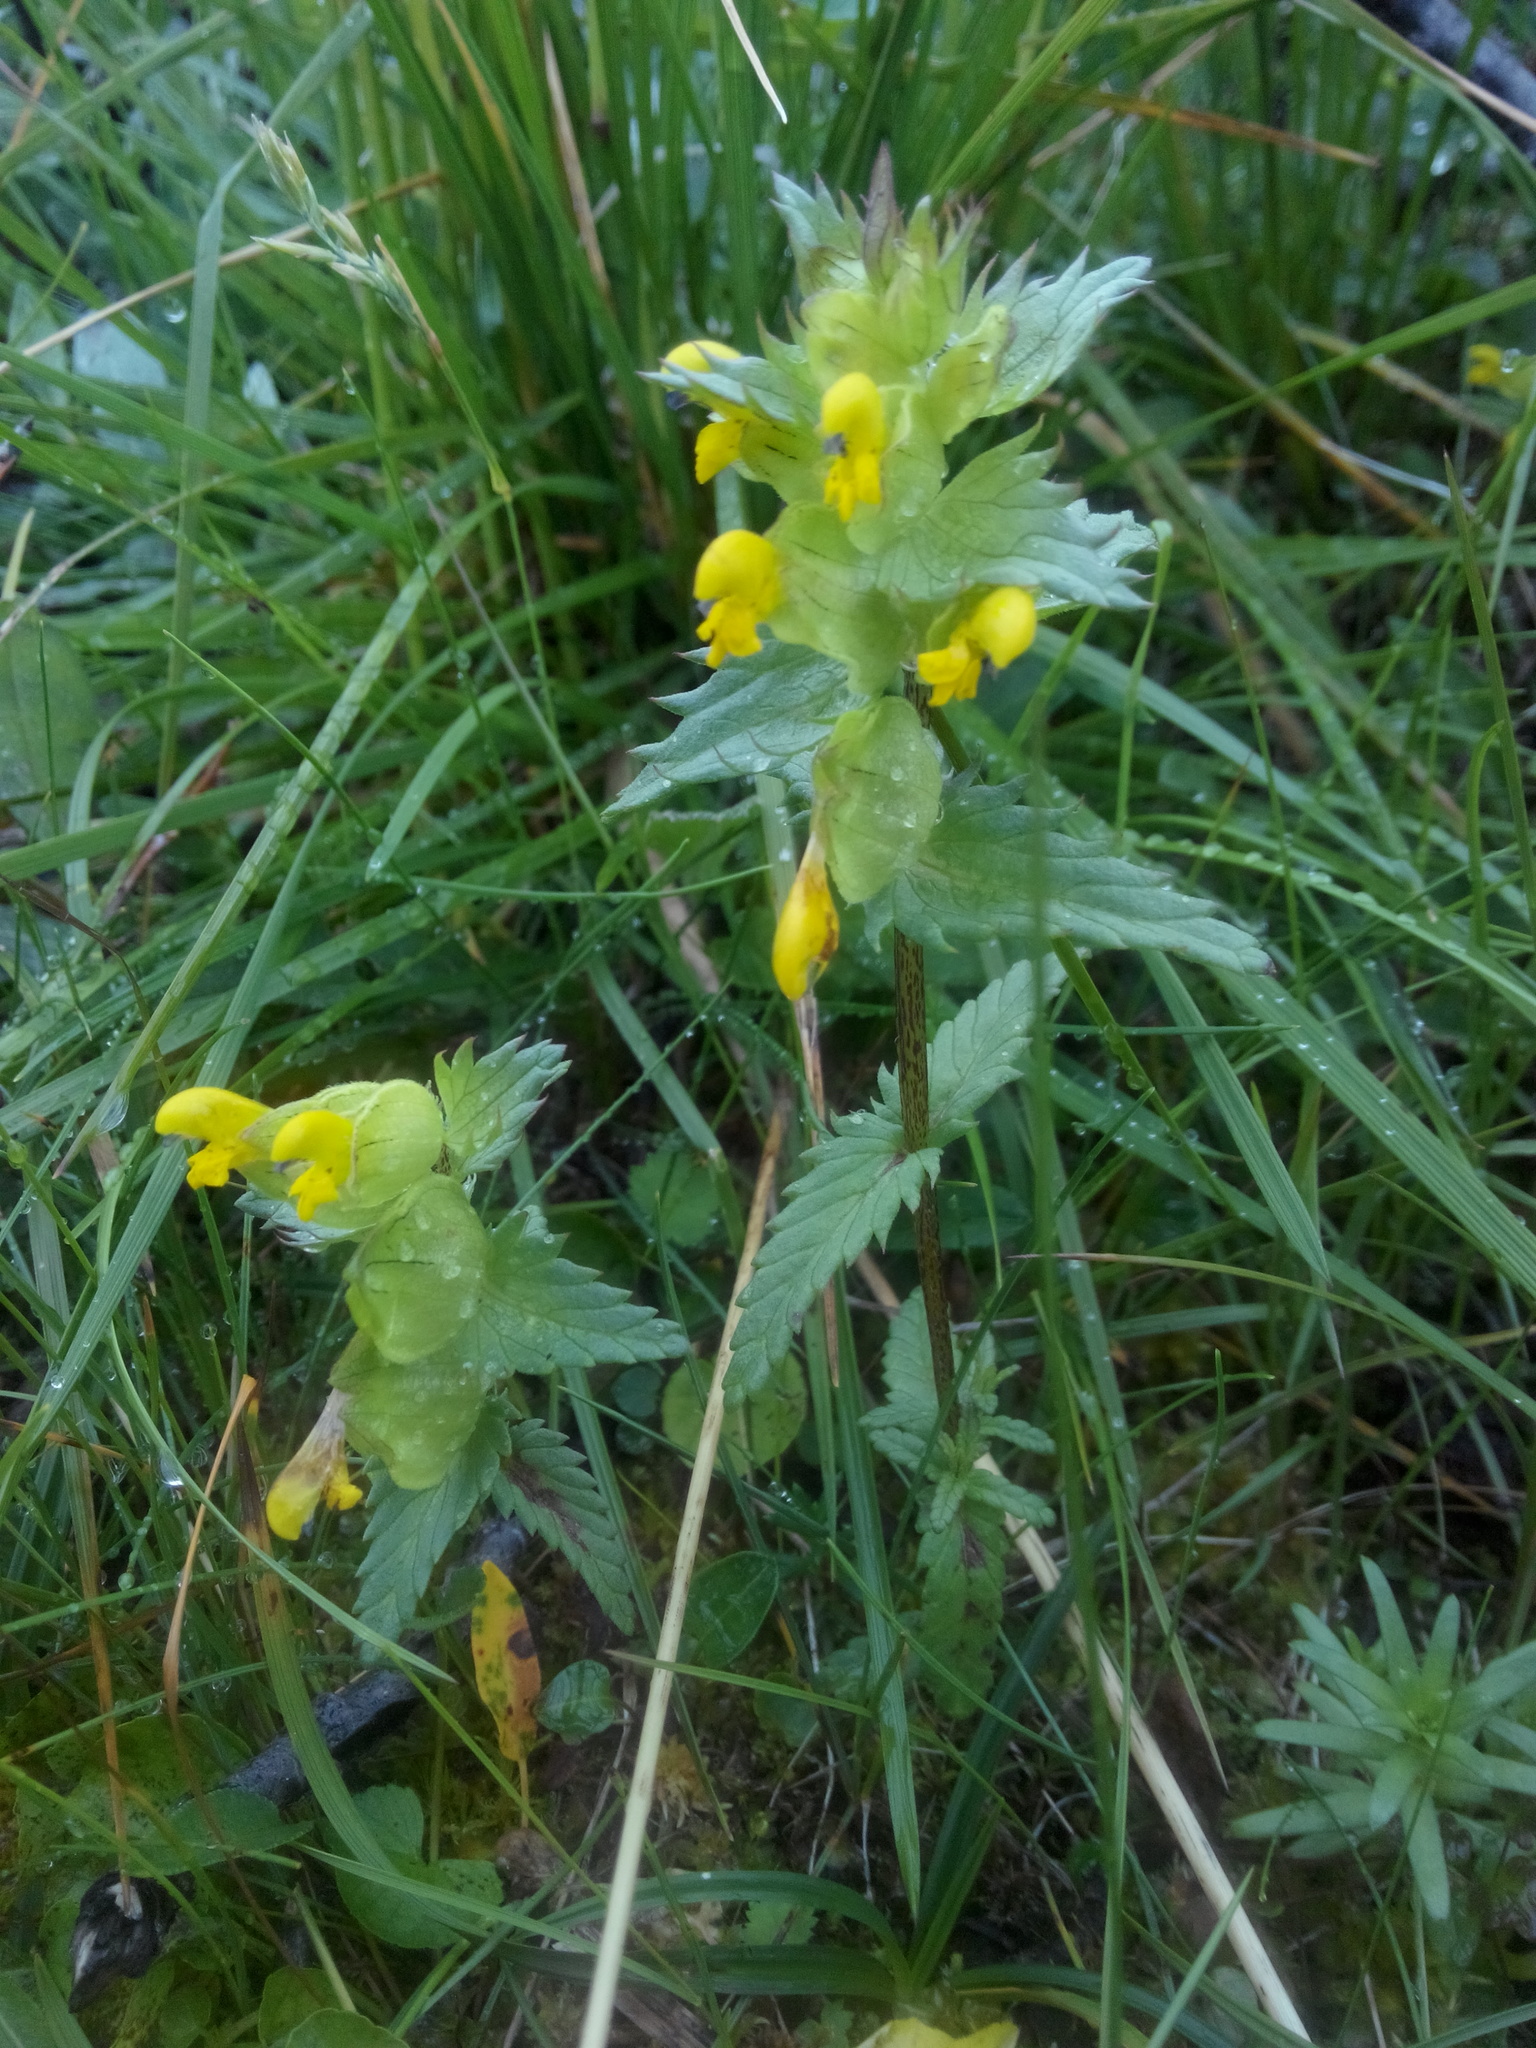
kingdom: Plantae
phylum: Tracheophyta
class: Magnoliopsida
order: Lamiales
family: Orobanchaceae
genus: Rhinanthus
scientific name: Rhinanthus minor
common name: Yellow-rattle
